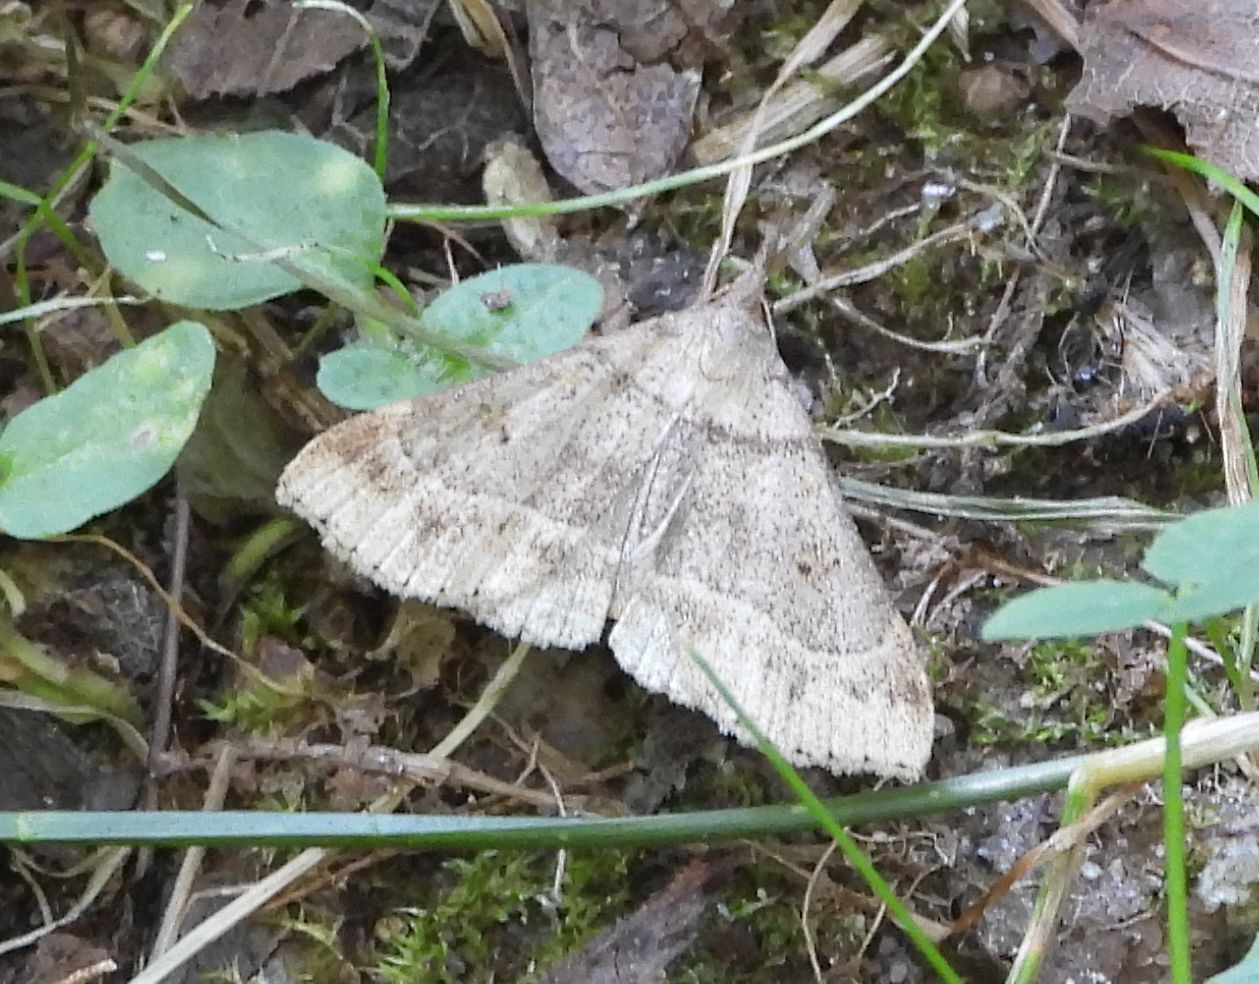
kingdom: Animalia
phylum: Arthropoda
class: Insecta
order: Lepidoptera
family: Erebidae
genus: Renia
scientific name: Renia flavipunctalis
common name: Yellow-spotted renia moth
